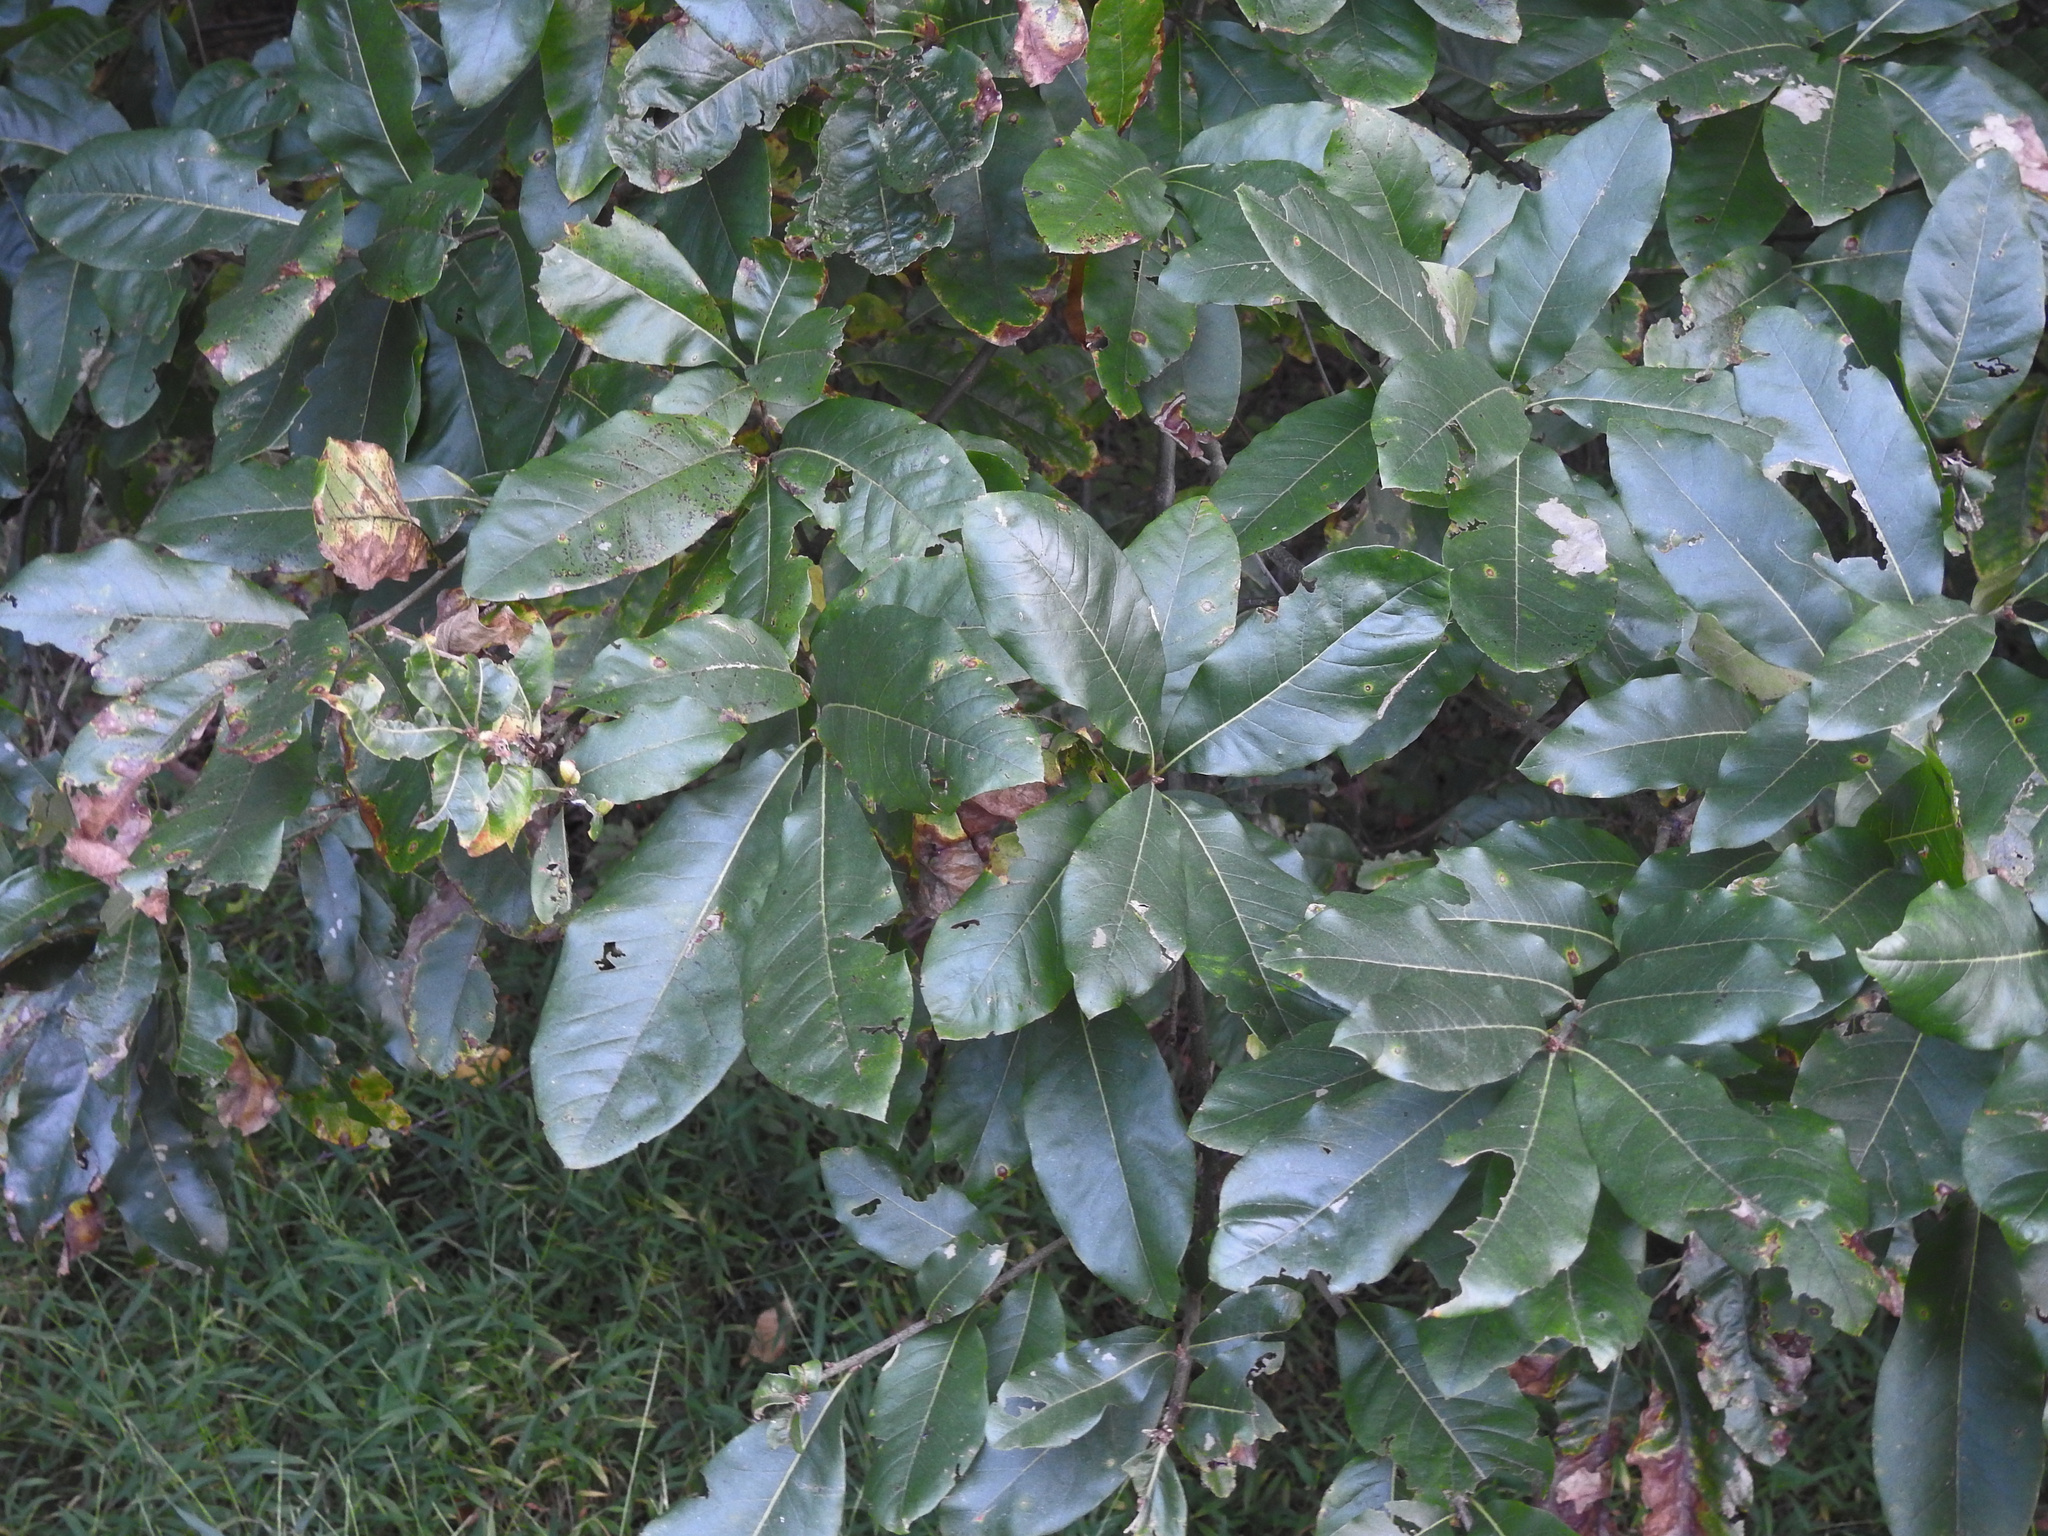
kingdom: Plantae
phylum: Tracheophyta
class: Magnoliopsida
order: Fagales
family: Fagaceae
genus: Quercus
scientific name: Quercus imbricaria
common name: Shingle oak
